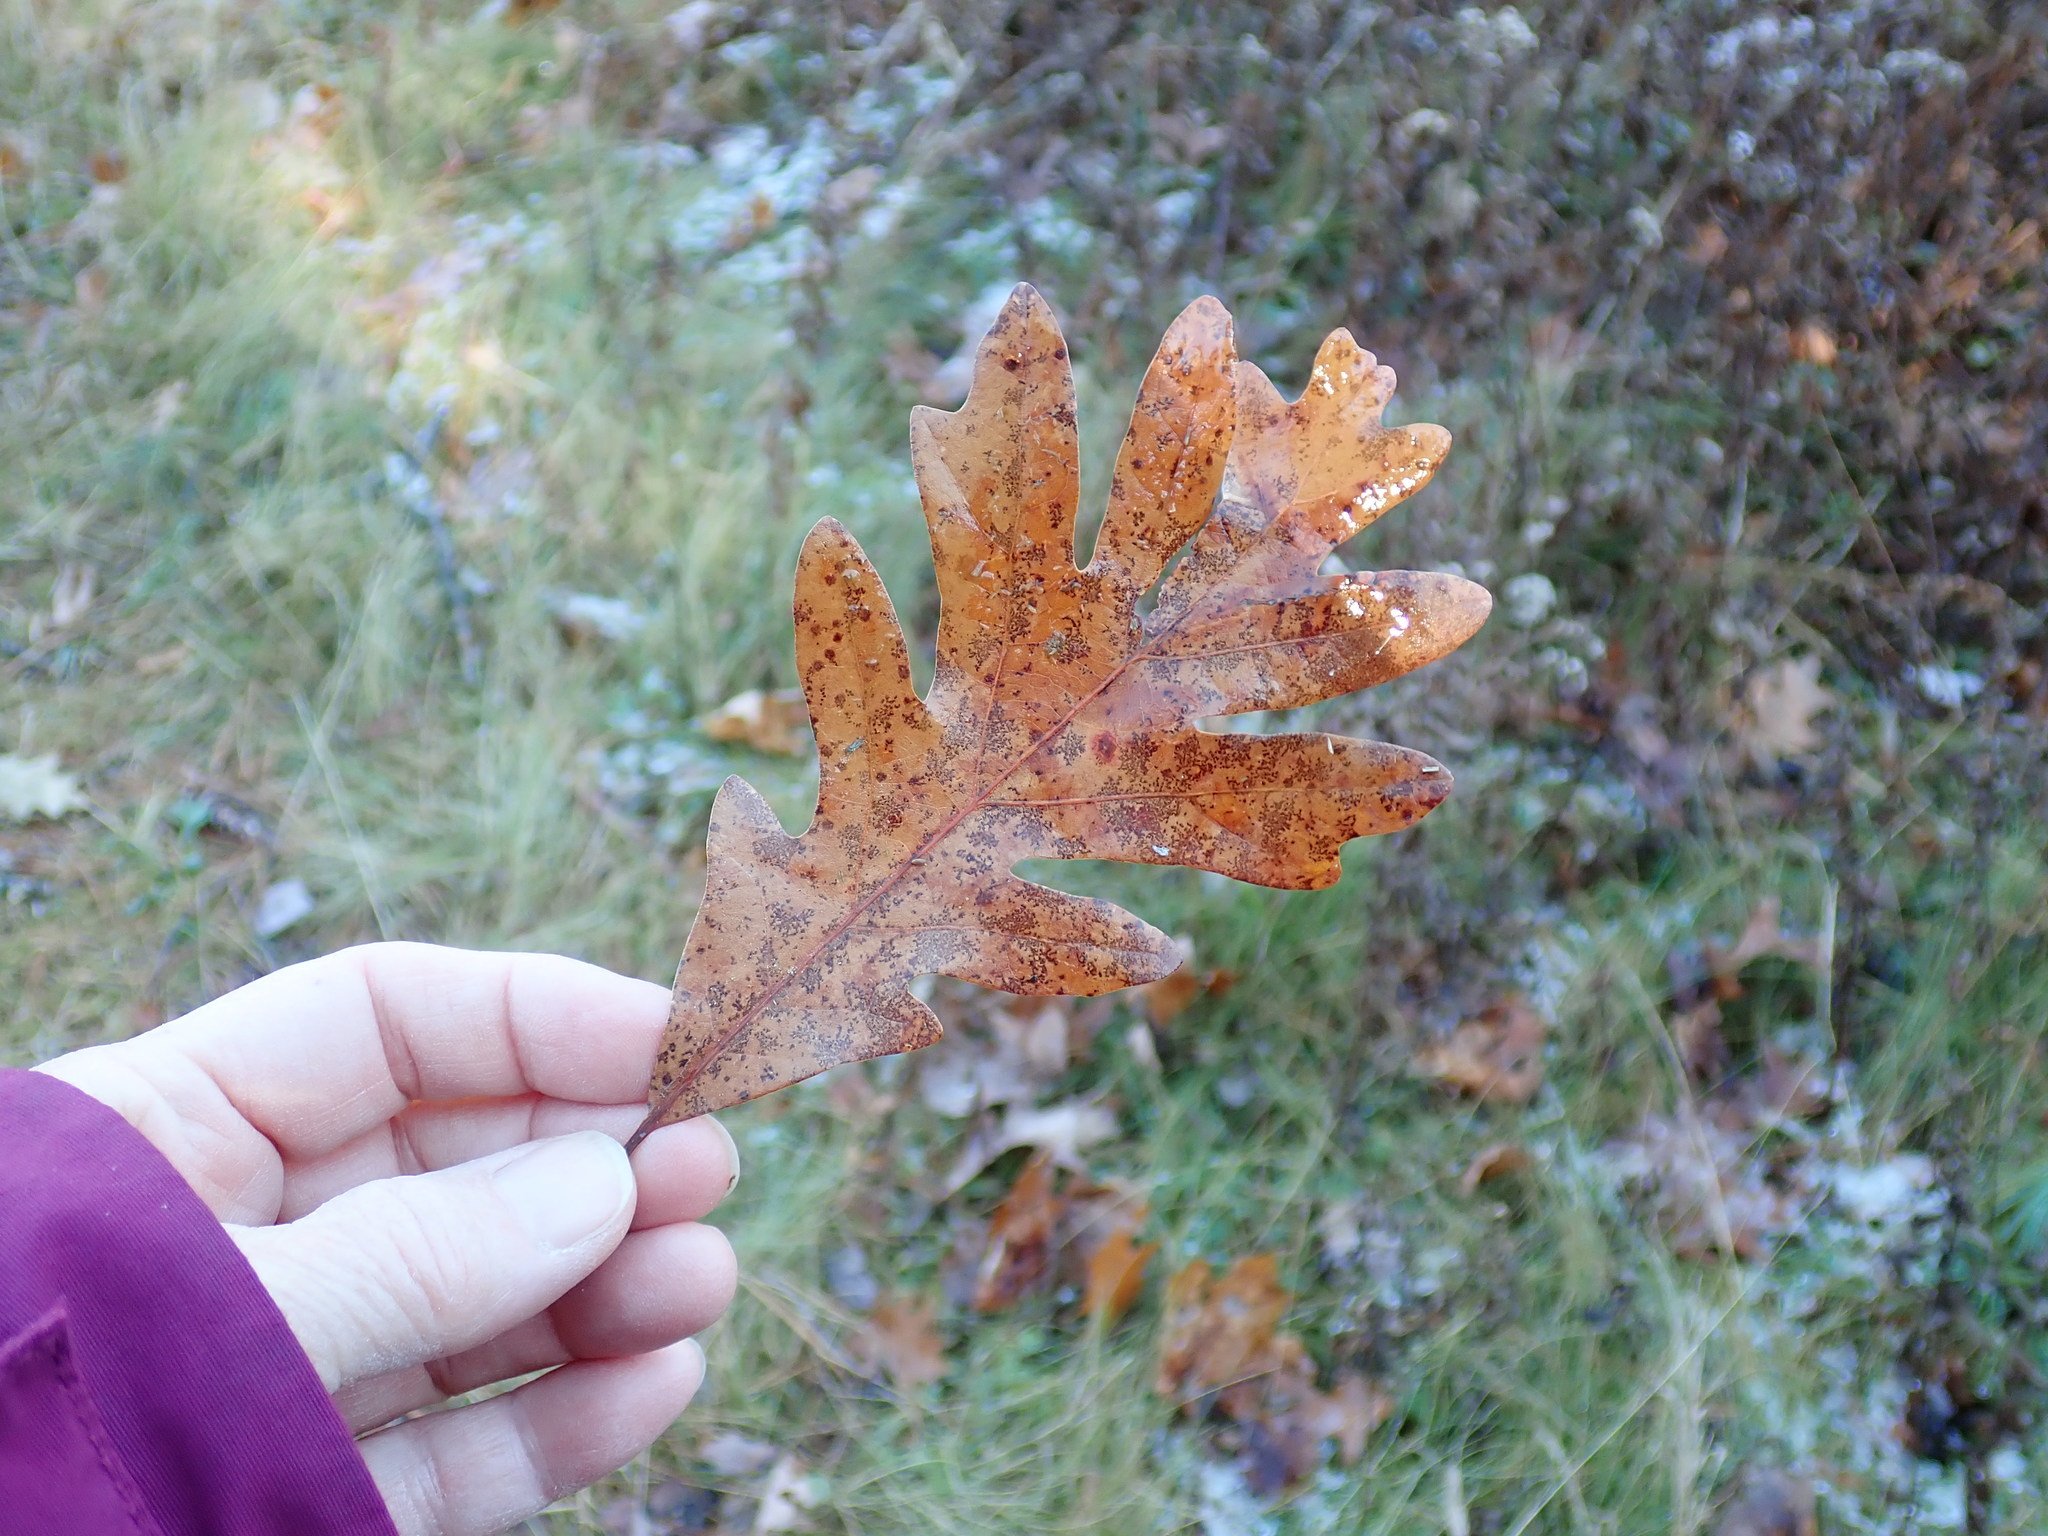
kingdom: Plantae
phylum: Tracheophyta
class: Magnoliopsida
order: Fagales
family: Fagaceae
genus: Quercus
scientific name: Quercus alba
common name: White oak
